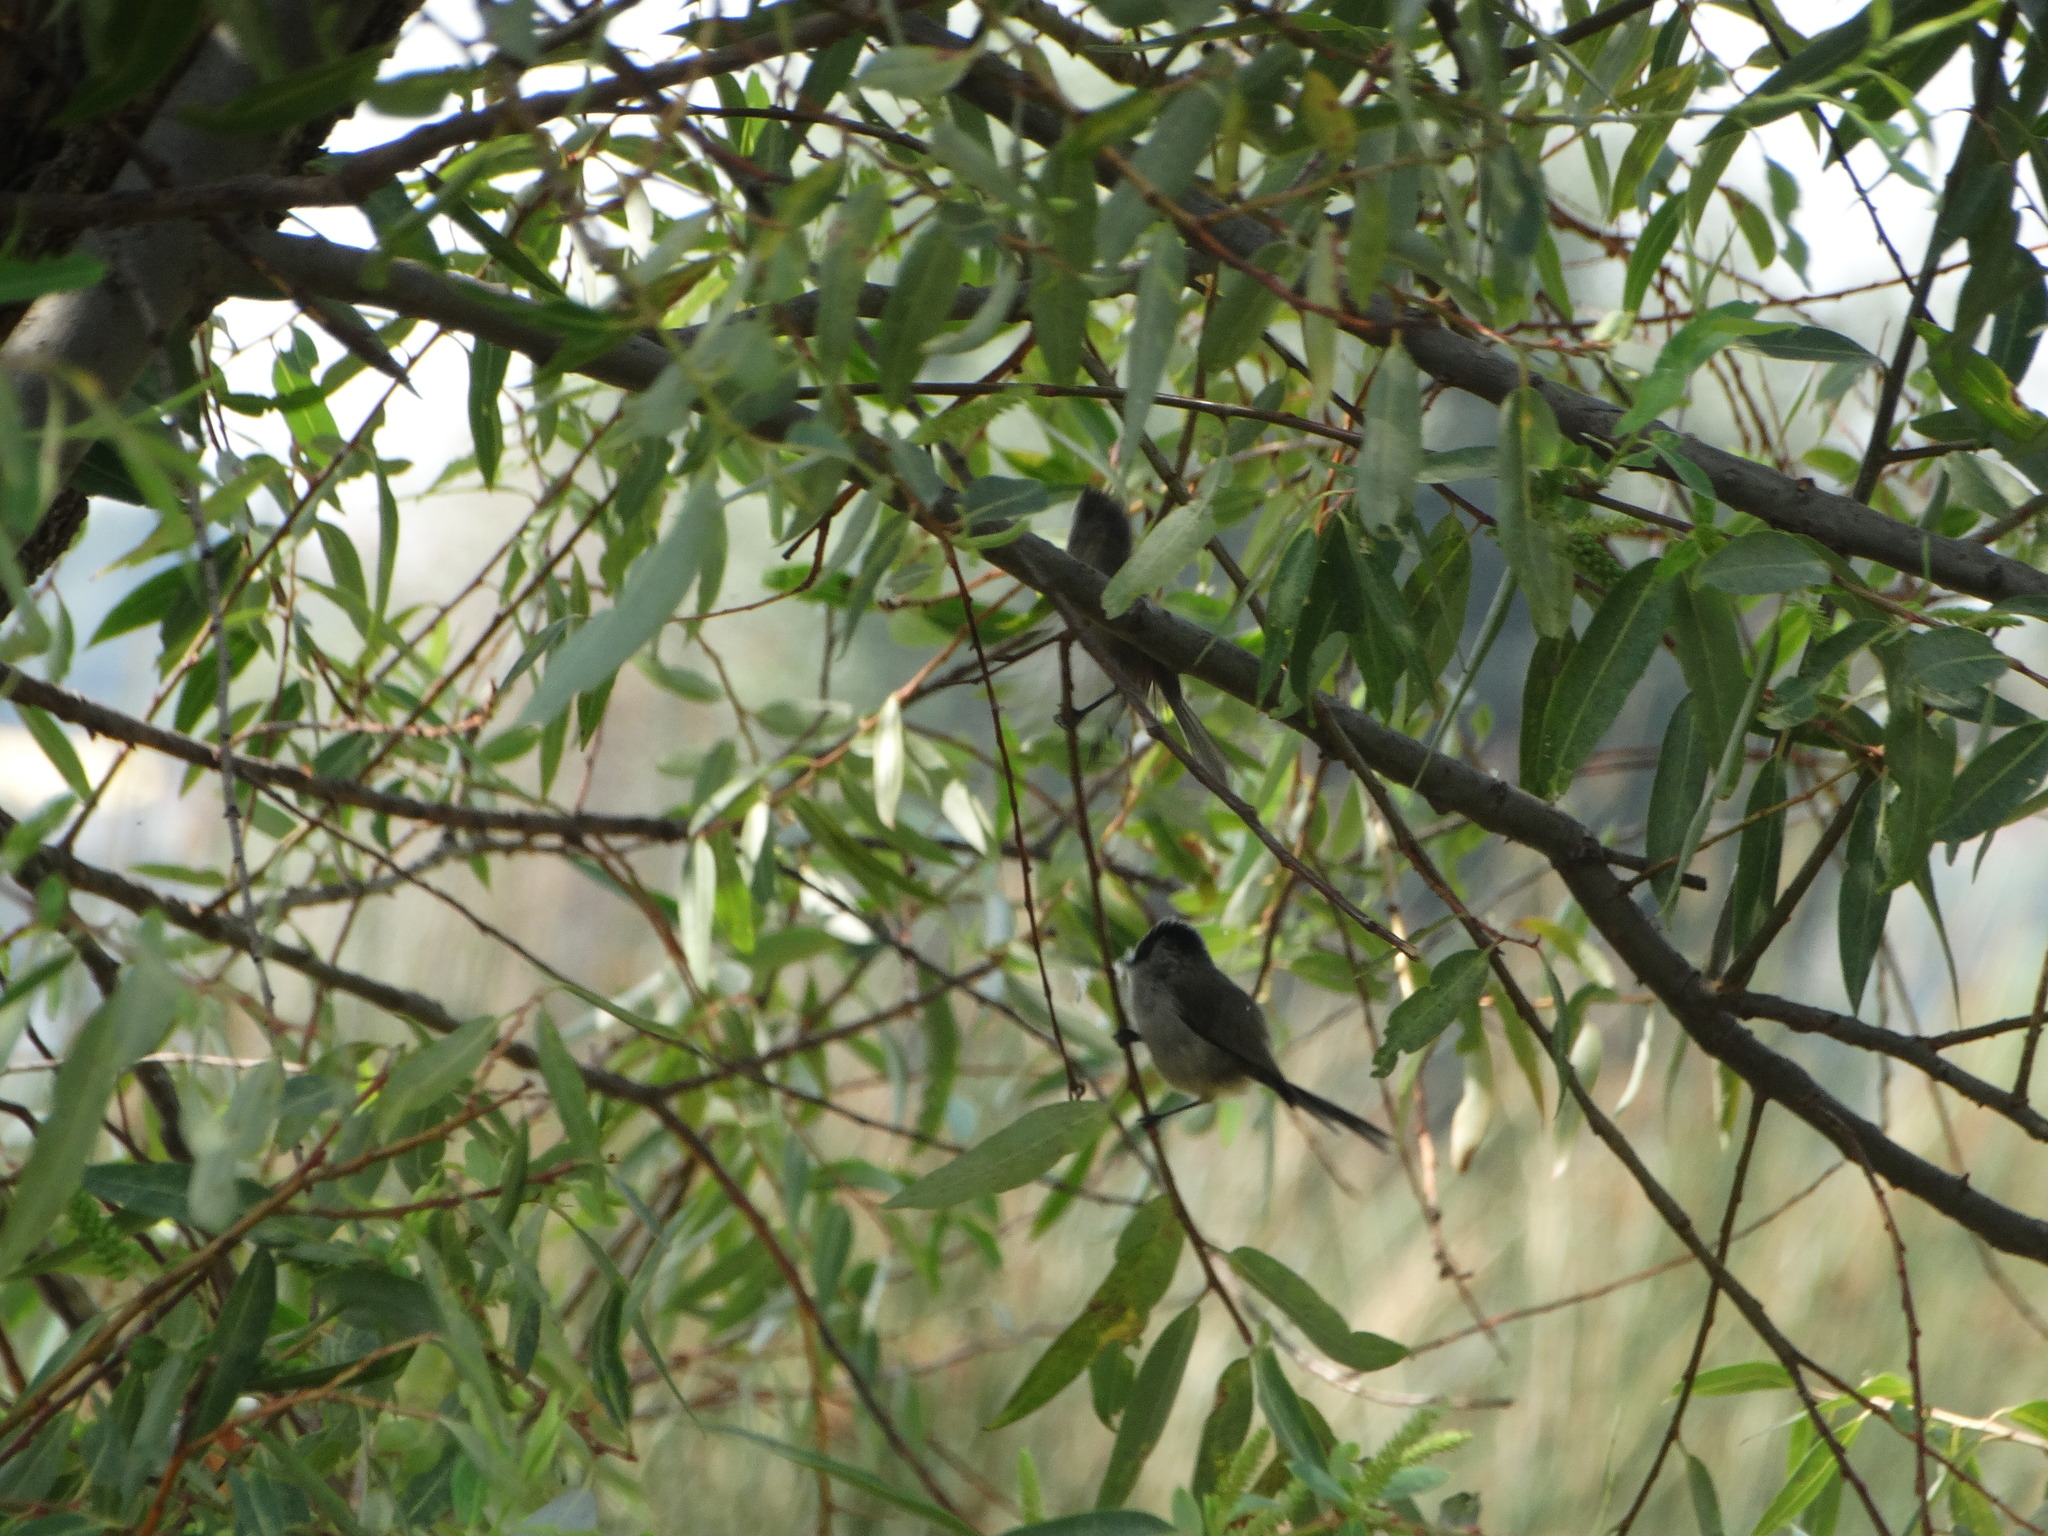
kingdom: Animalia
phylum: Chordata
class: Aves
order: Passeriformes
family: Aegithalidae
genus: Psaltriparus
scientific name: Psaltriparus minimus
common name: American bushtit
